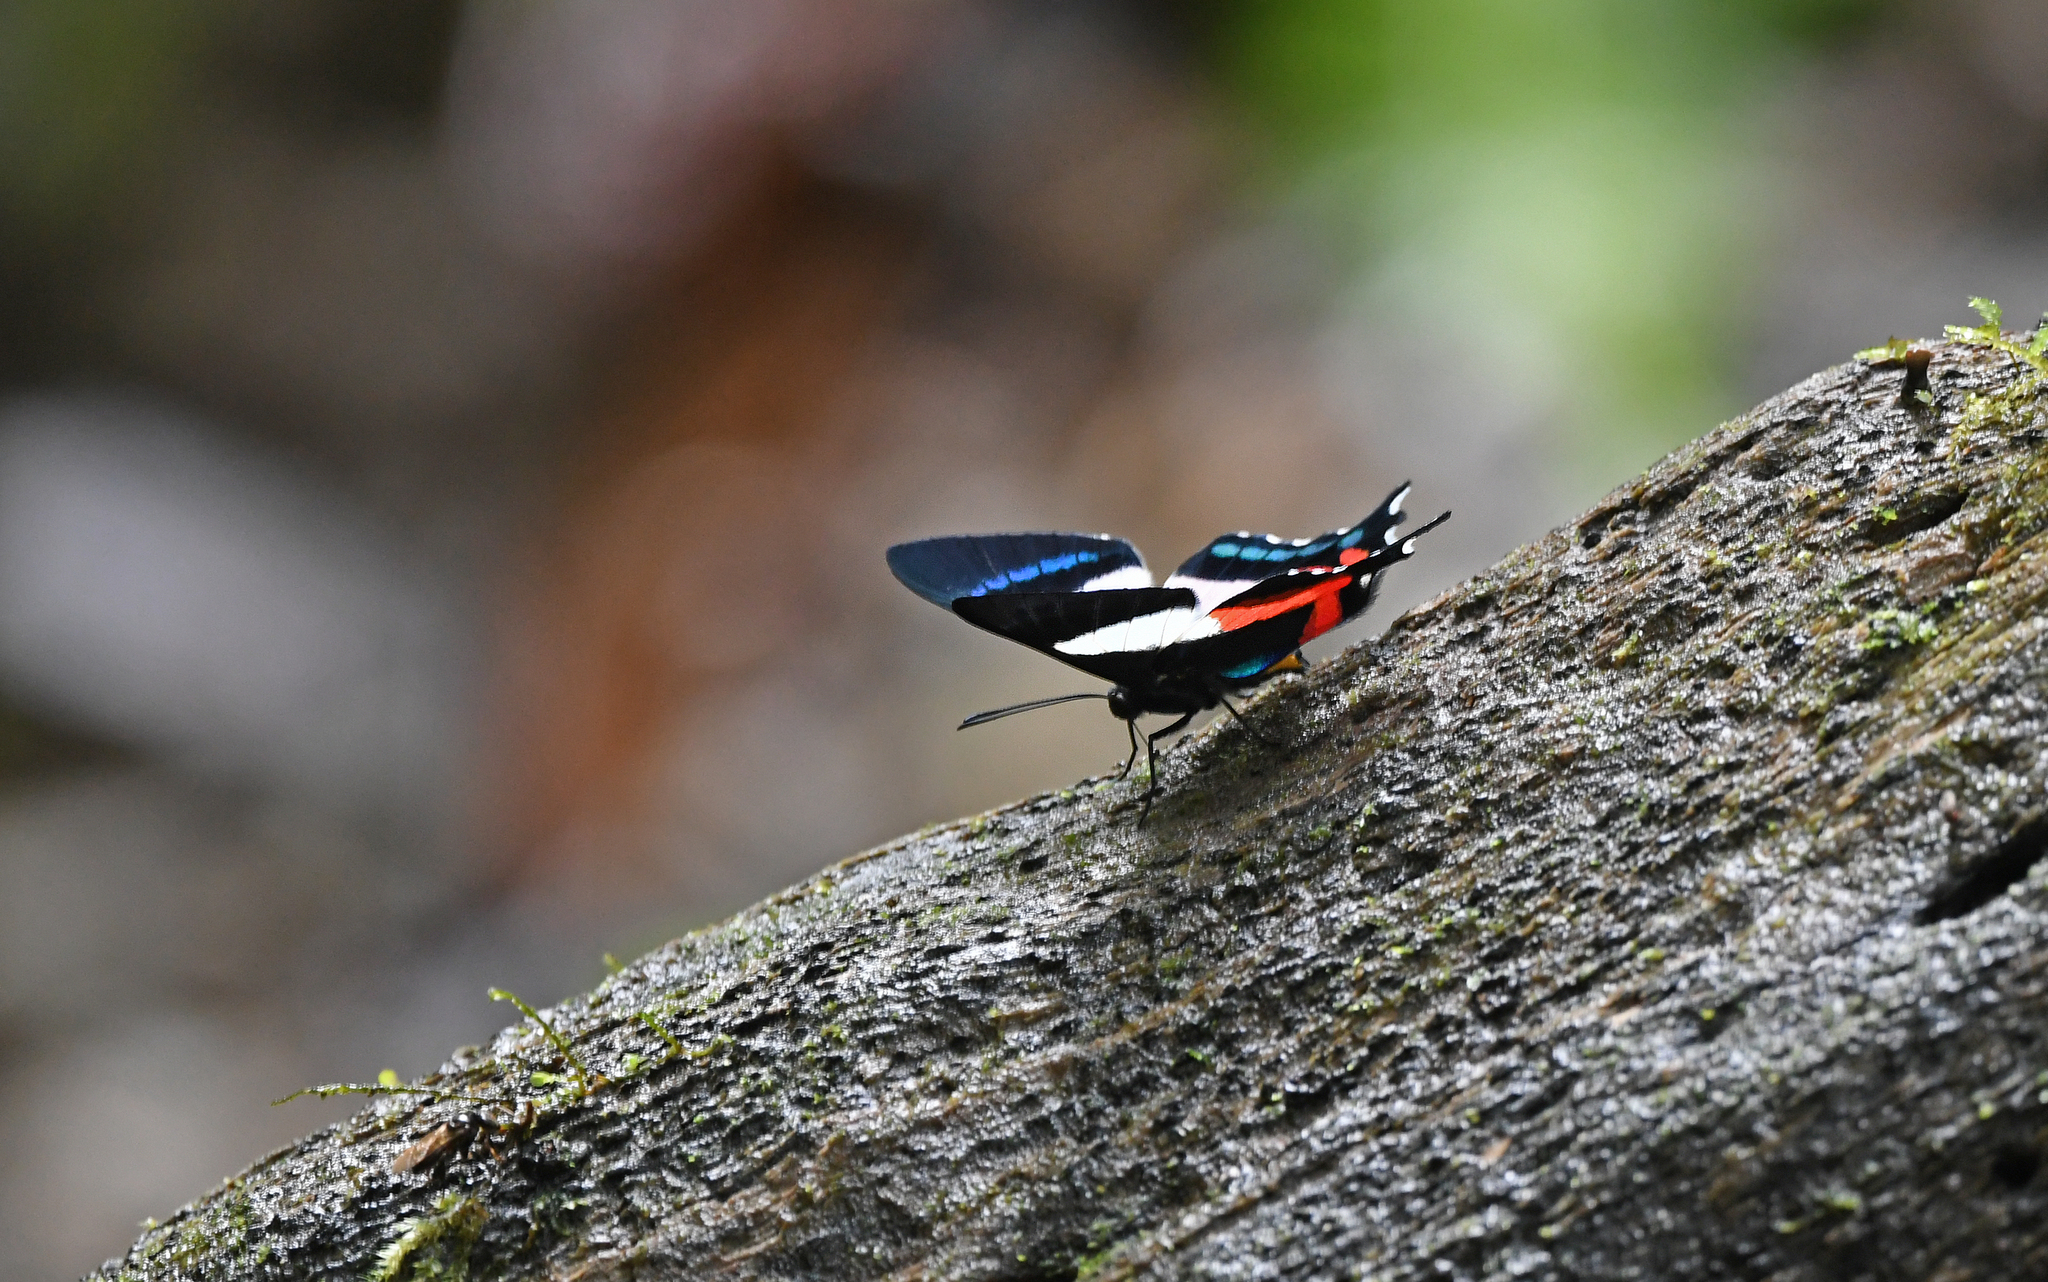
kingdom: Animalia
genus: Ancyluris
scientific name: Ancyluris formosissima
